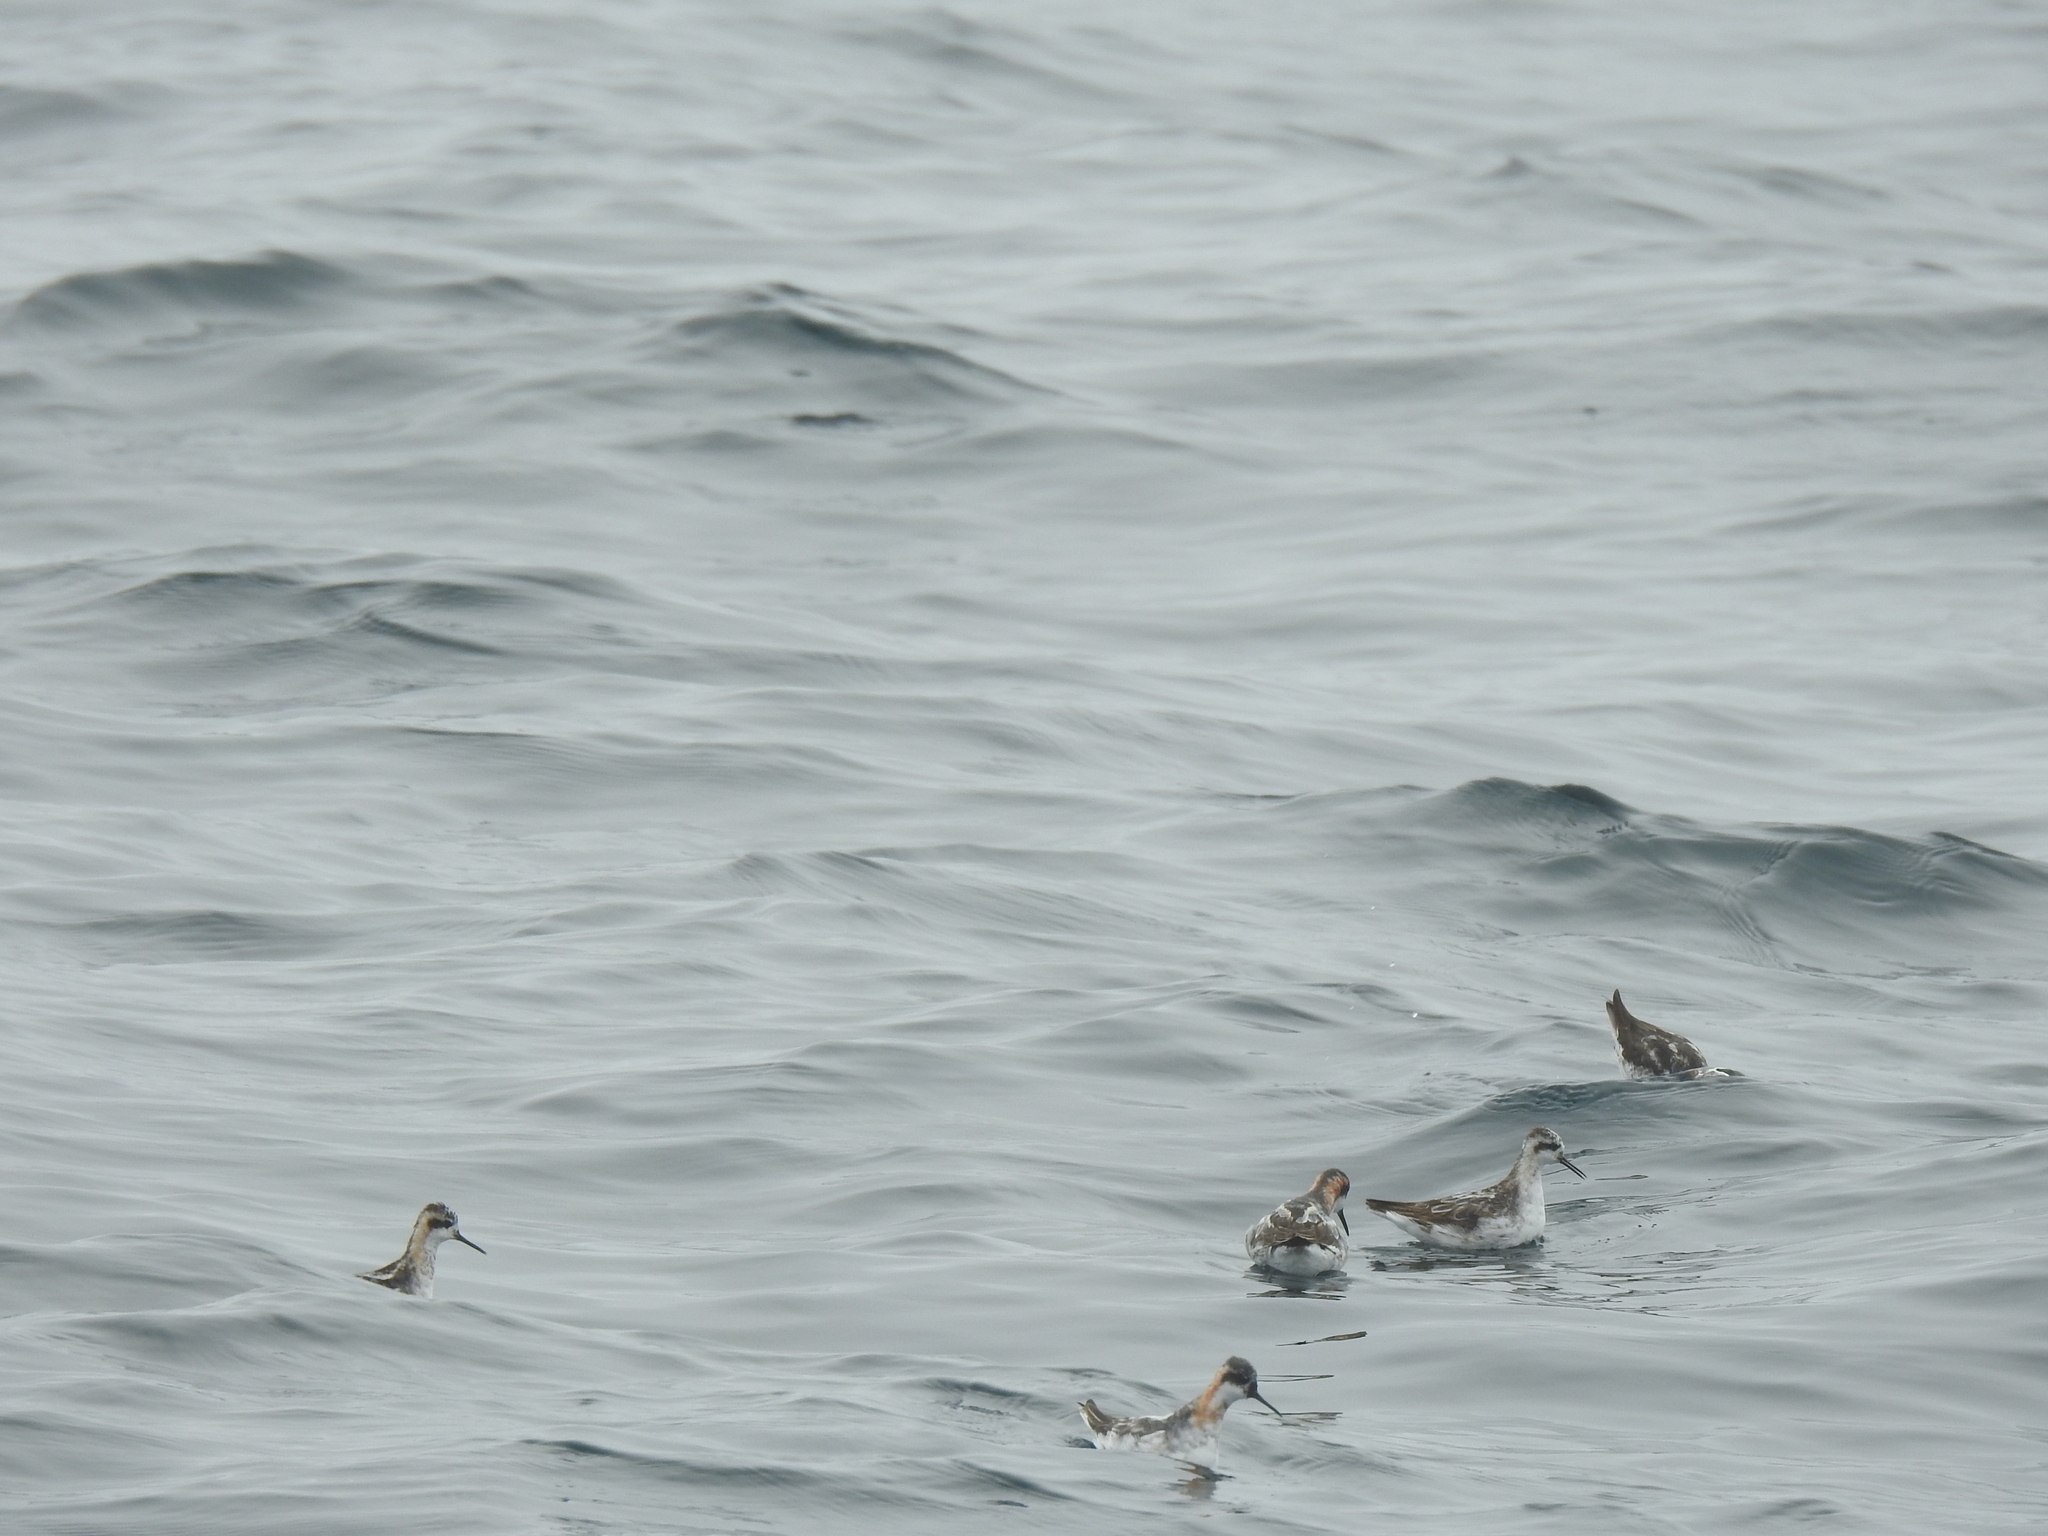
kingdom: Animalia
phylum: Chordata
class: Aves
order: Charadriiformes
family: Scolopacidae
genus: Phalaropus
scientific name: Phalaropus lobatus
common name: Red-necked phalarope
